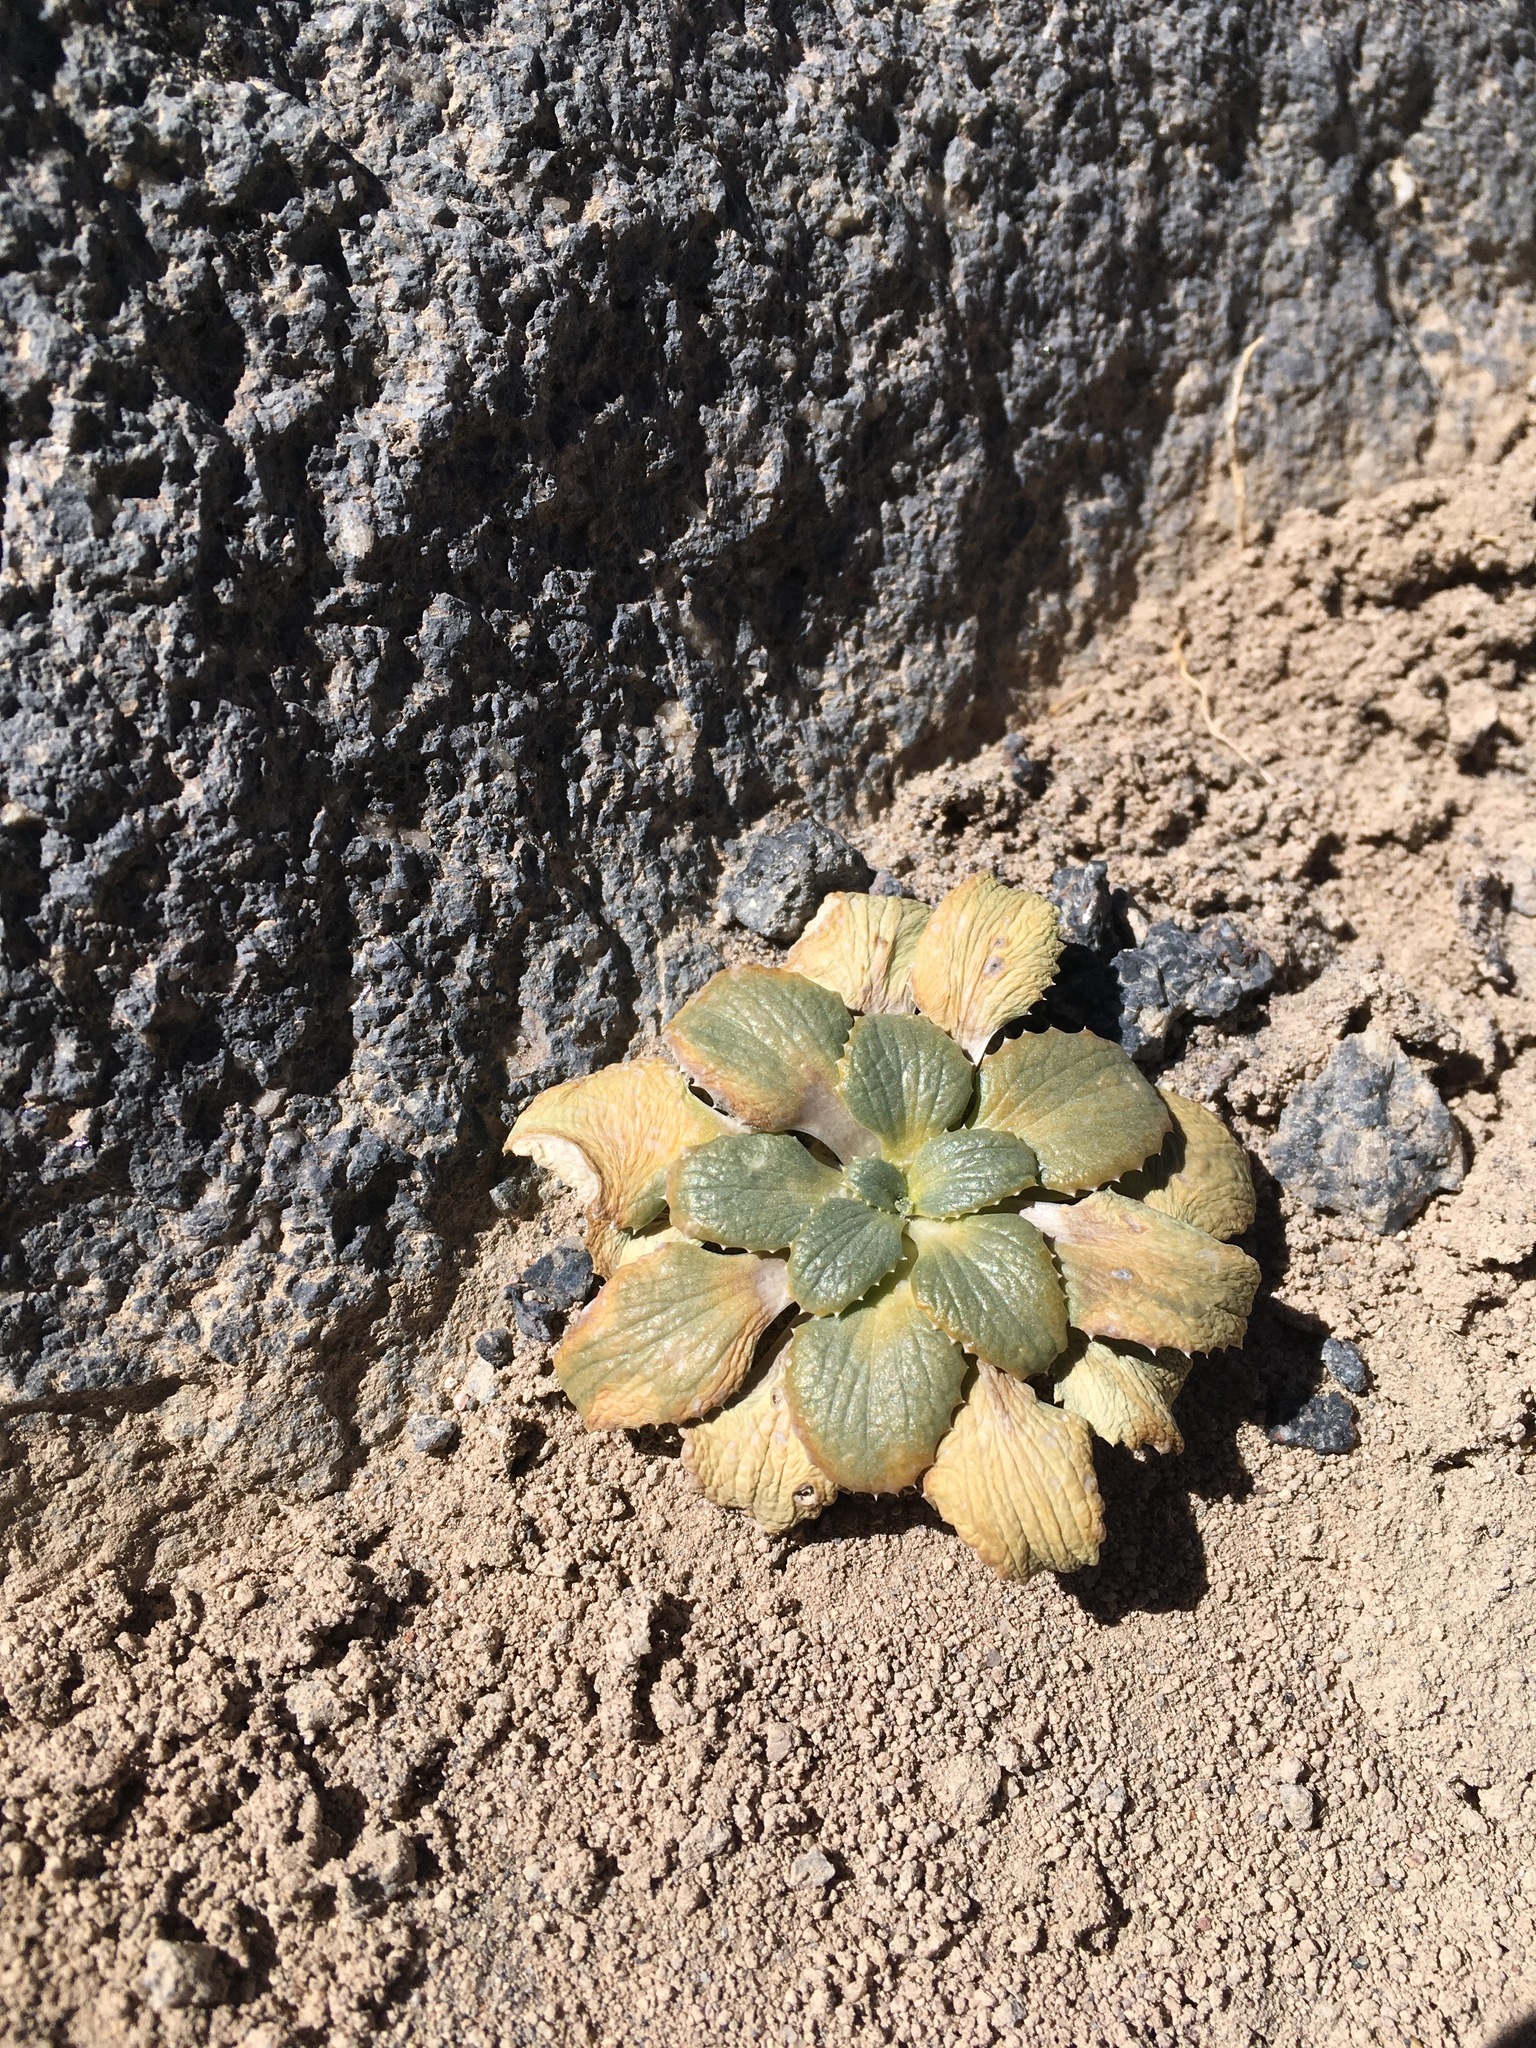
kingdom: Plantae
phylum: Tracheophyta
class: Magnoliopsida
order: Asterales
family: Calyceraceae
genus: Calycera
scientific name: Calycera monocephala
